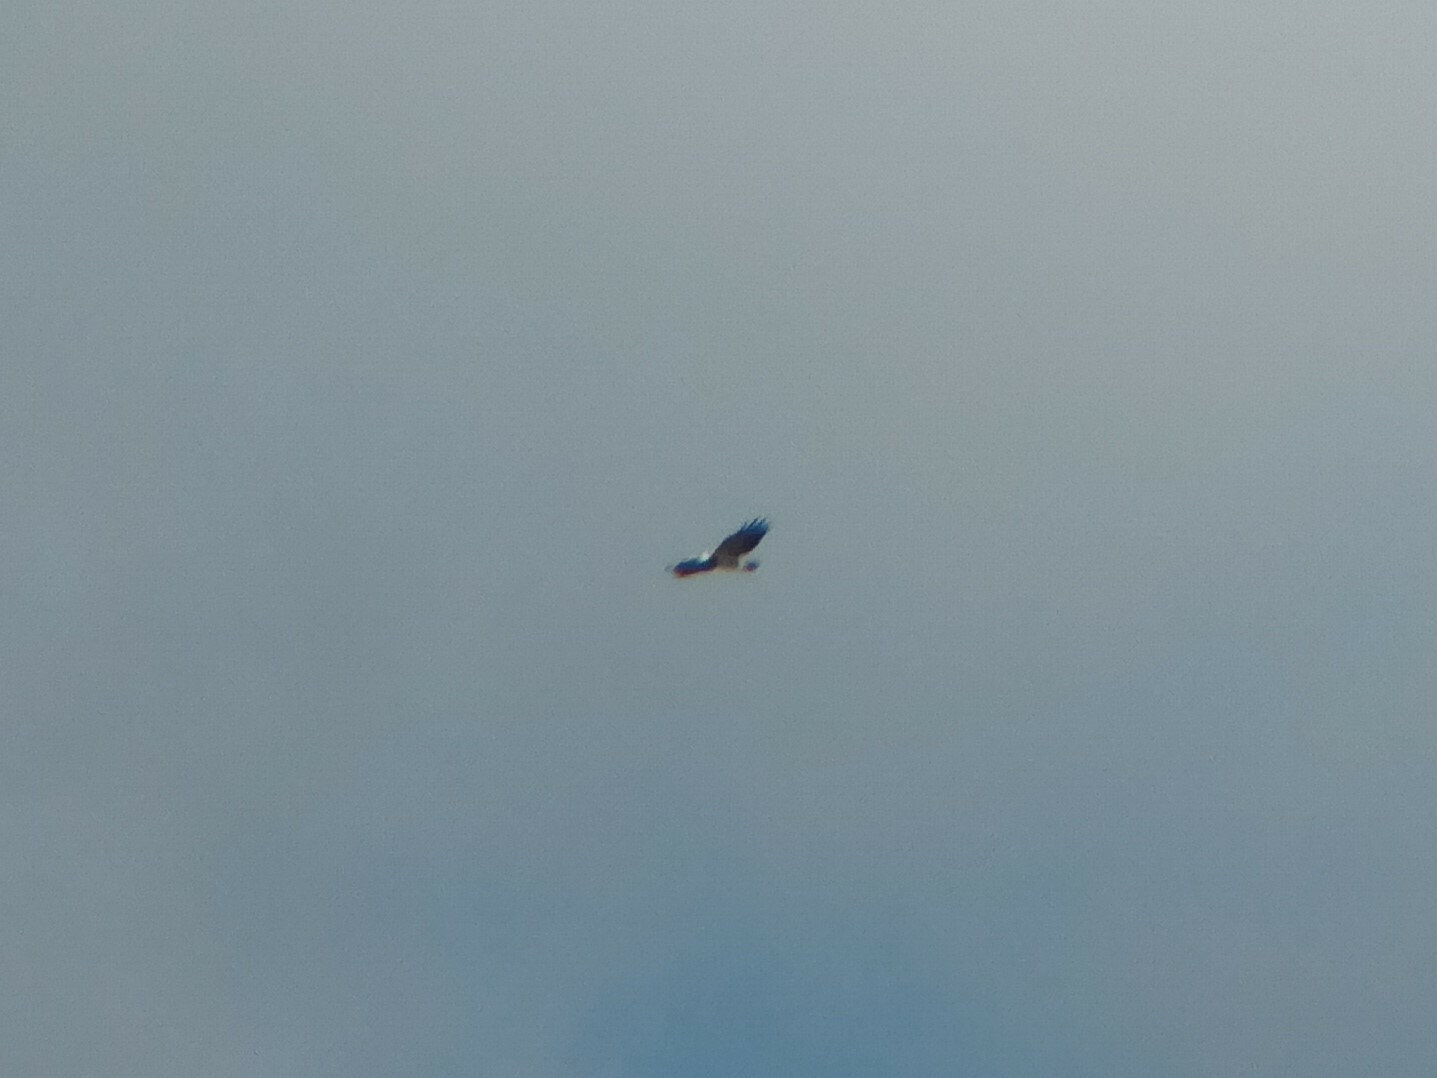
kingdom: Animalia
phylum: Chordata
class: Aves
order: Accipitriformes
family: Accipitridae
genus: Buteo
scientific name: Buteo buteo
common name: Common buzzard
